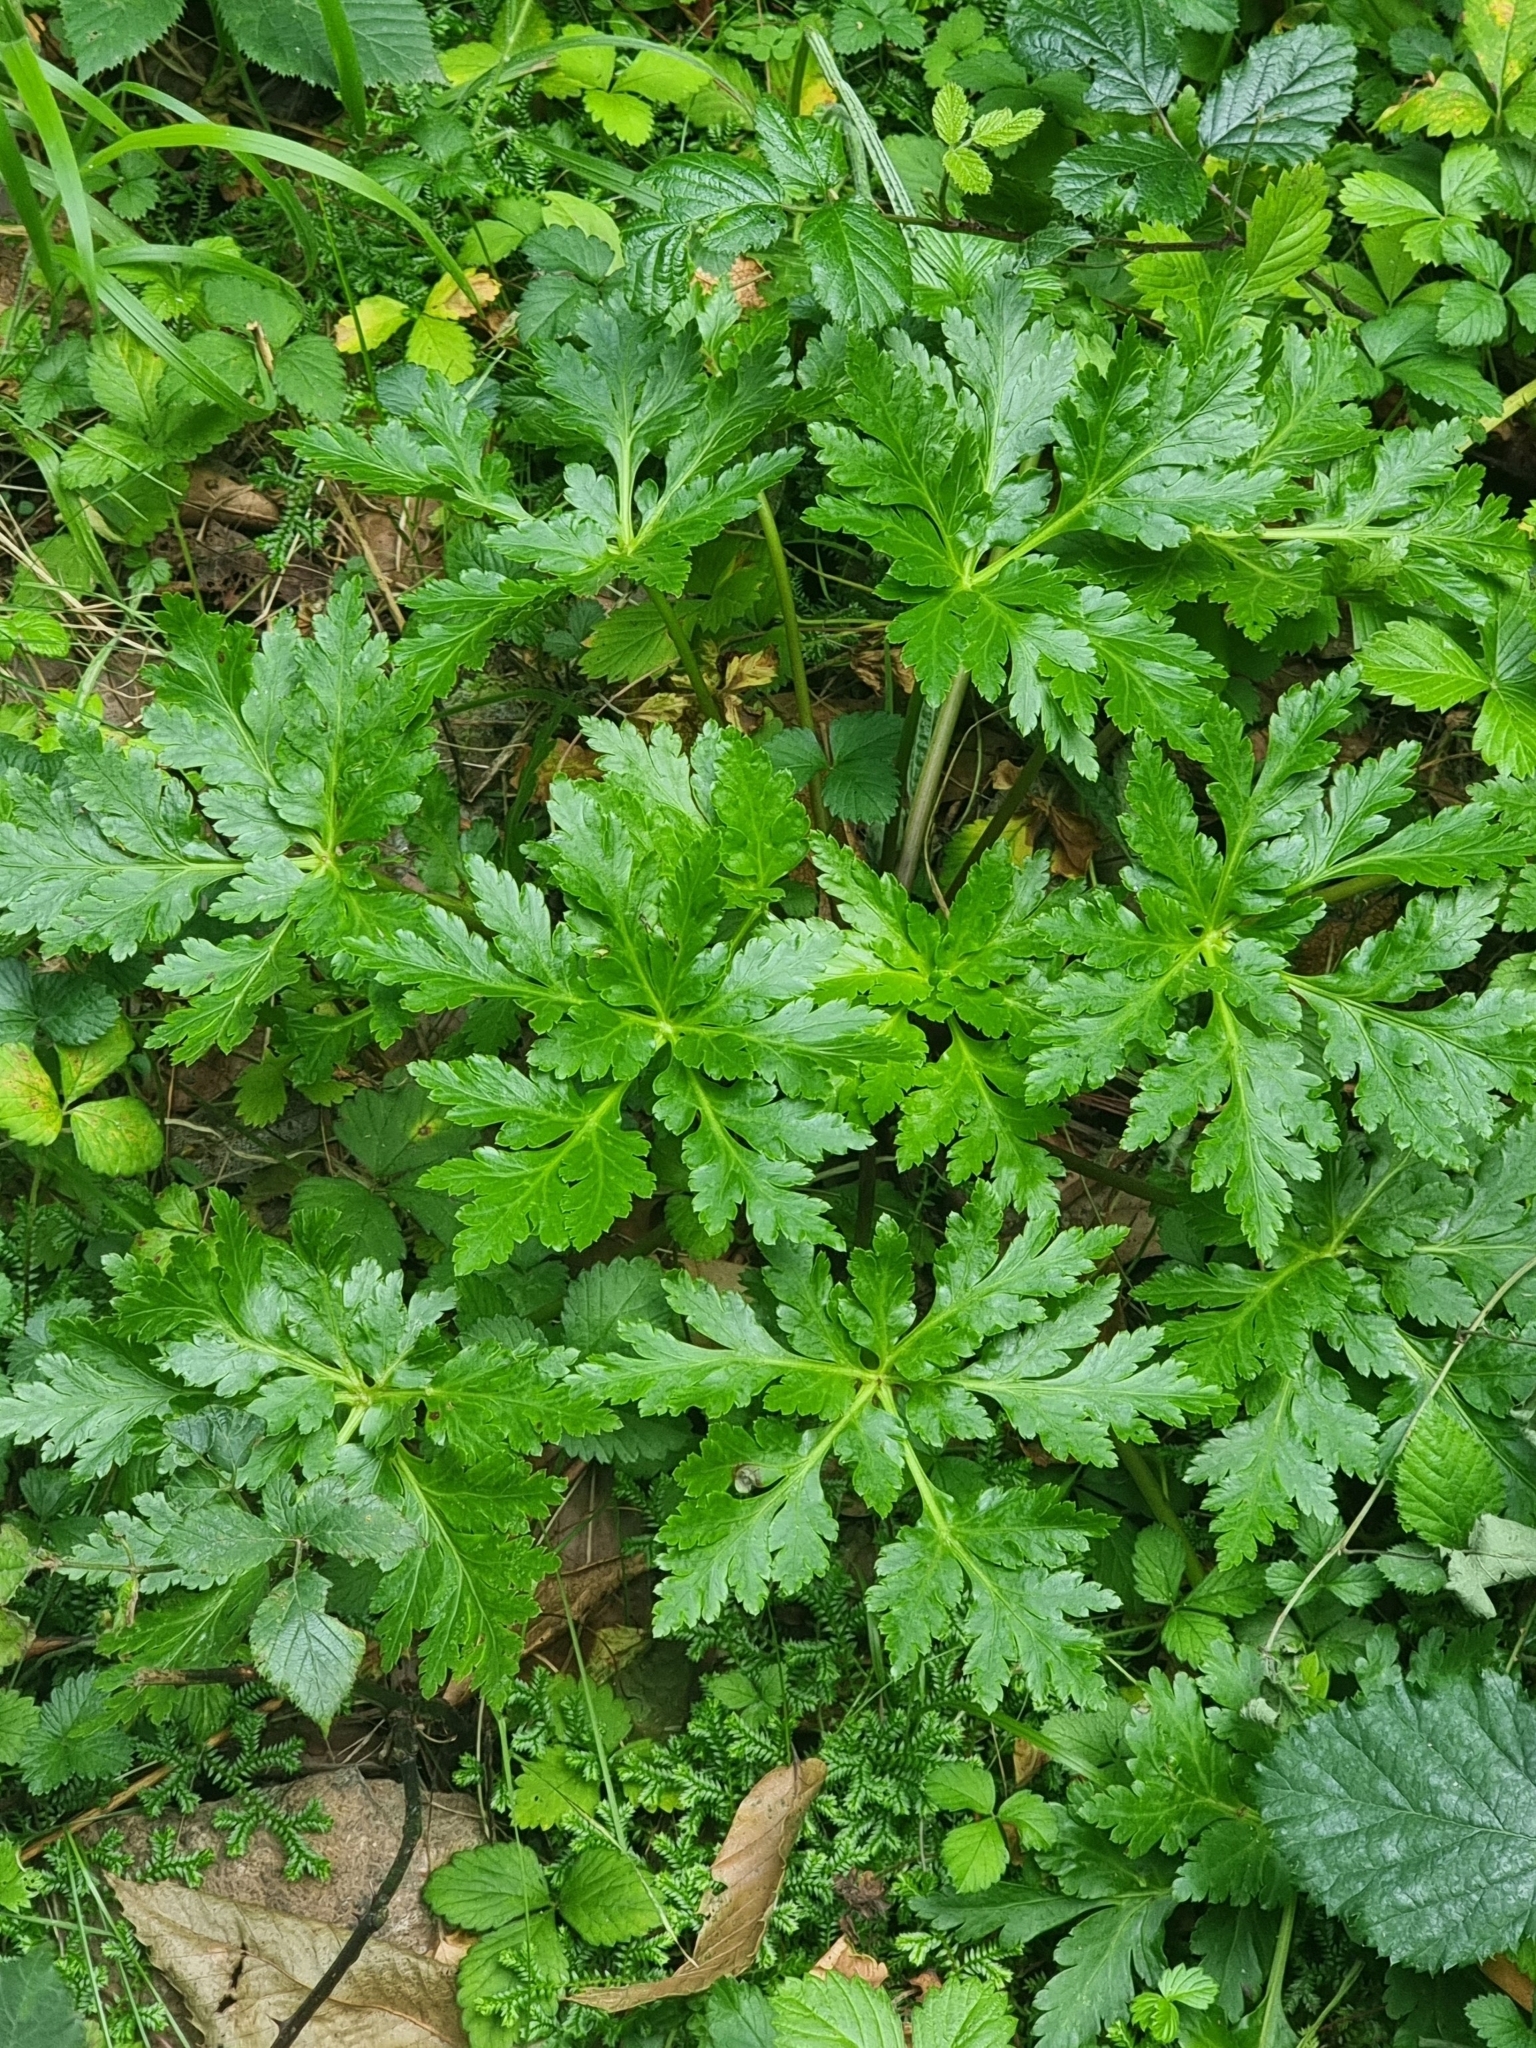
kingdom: Plantae
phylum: Tracheophyta
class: Magnoliopsida
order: Geraniales
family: Geraniaceae
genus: Geranium
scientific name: Geranium palmatum
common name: Canary island geranium
